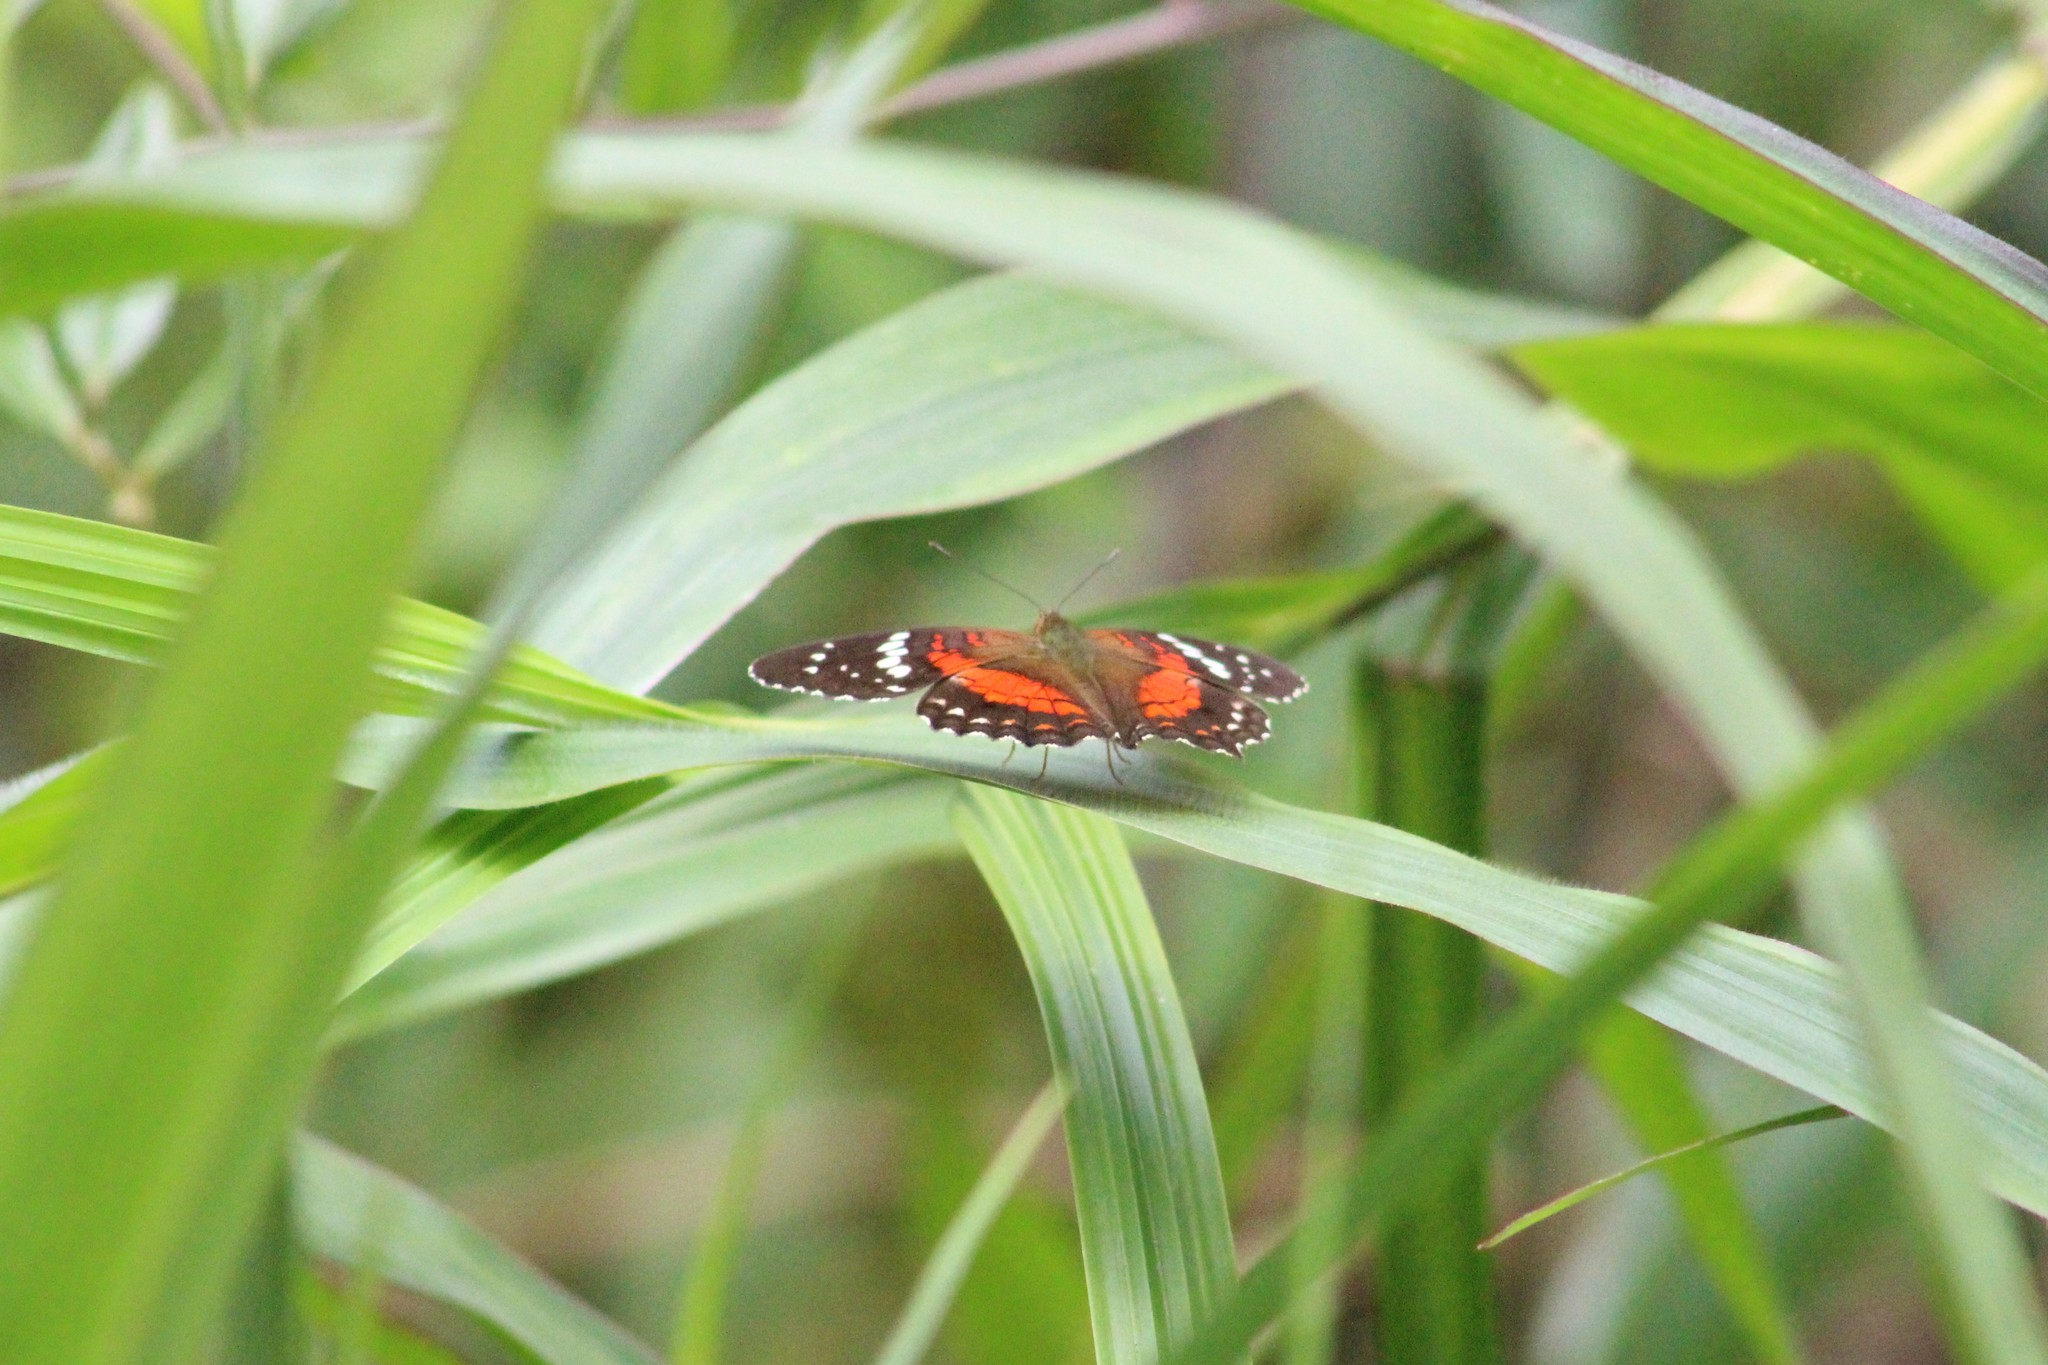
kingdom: Animalia
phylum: Arthropoda
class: Insecta
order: Lepidoptera
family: Nymphalidae
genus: Anartia
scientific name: Anartia amathea
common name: Red peacock
